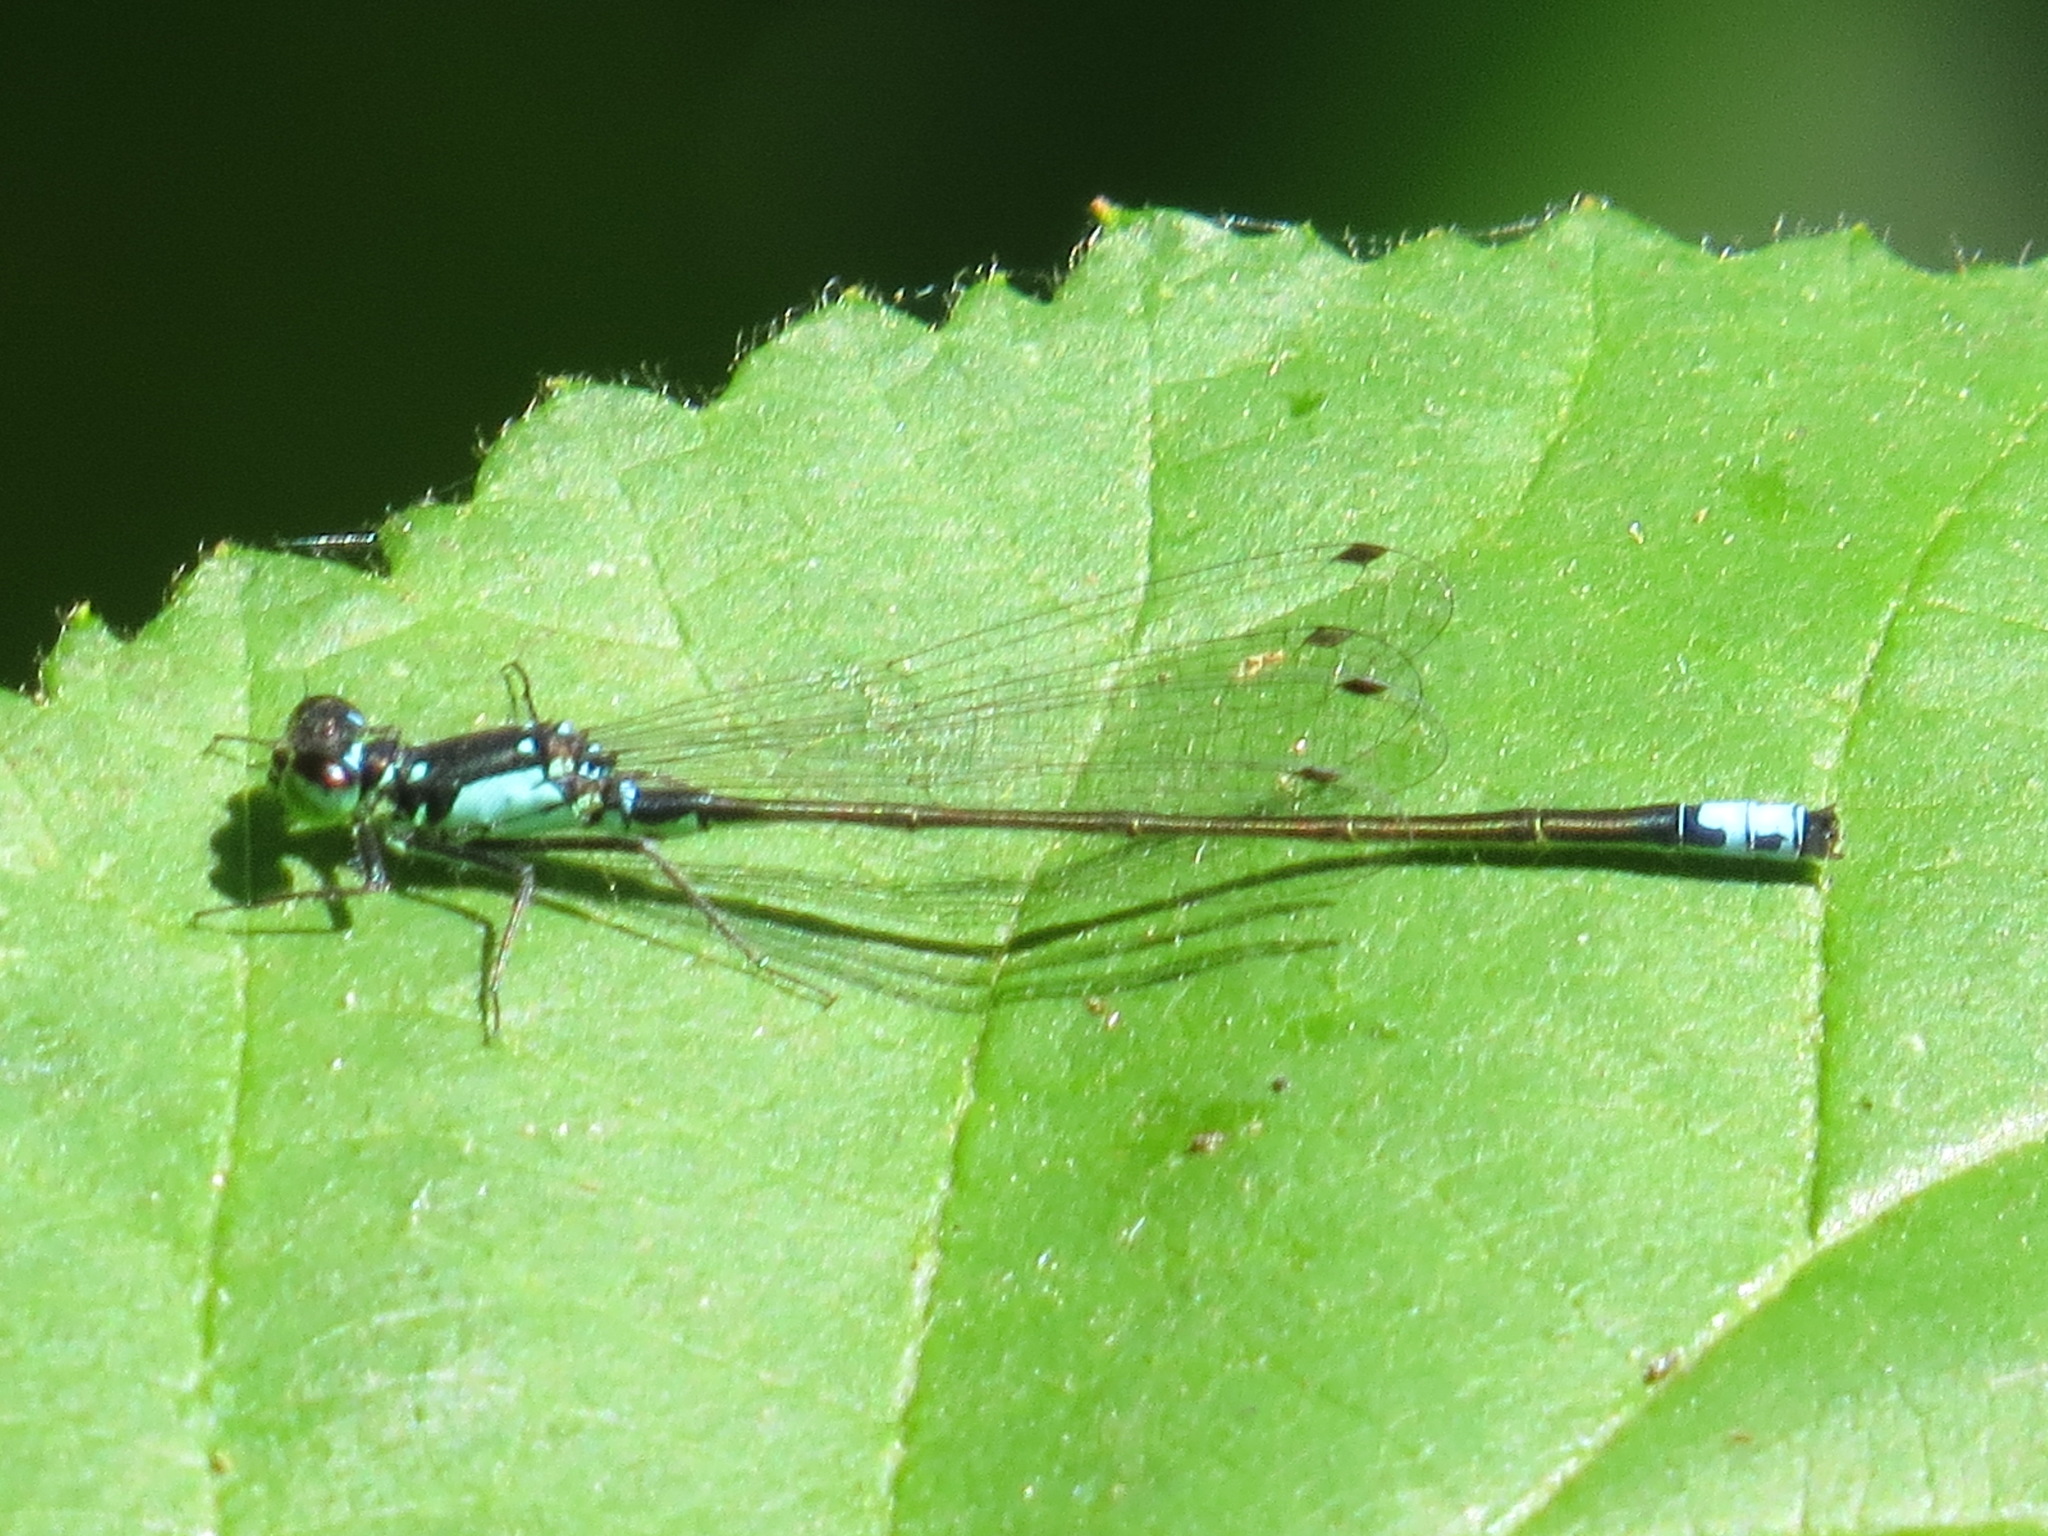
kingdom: Animalia
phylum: Arthropoda
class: Insecta
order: Odonata
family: Coenagrionidae
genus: Ischnura
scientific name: Ischnura cervula
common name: Pacific forktail
